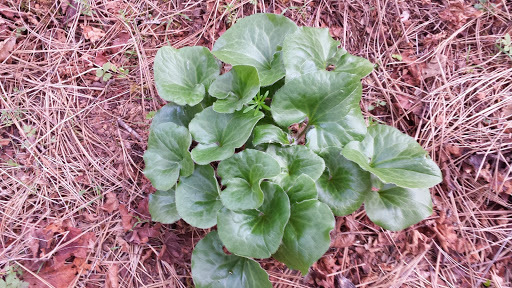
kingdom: Plantae
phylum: Tracheophyta
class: Magnoliopsida
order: Piperales
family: Aristolochiaceae
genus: Asarum
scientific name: Asarum hartwegii
